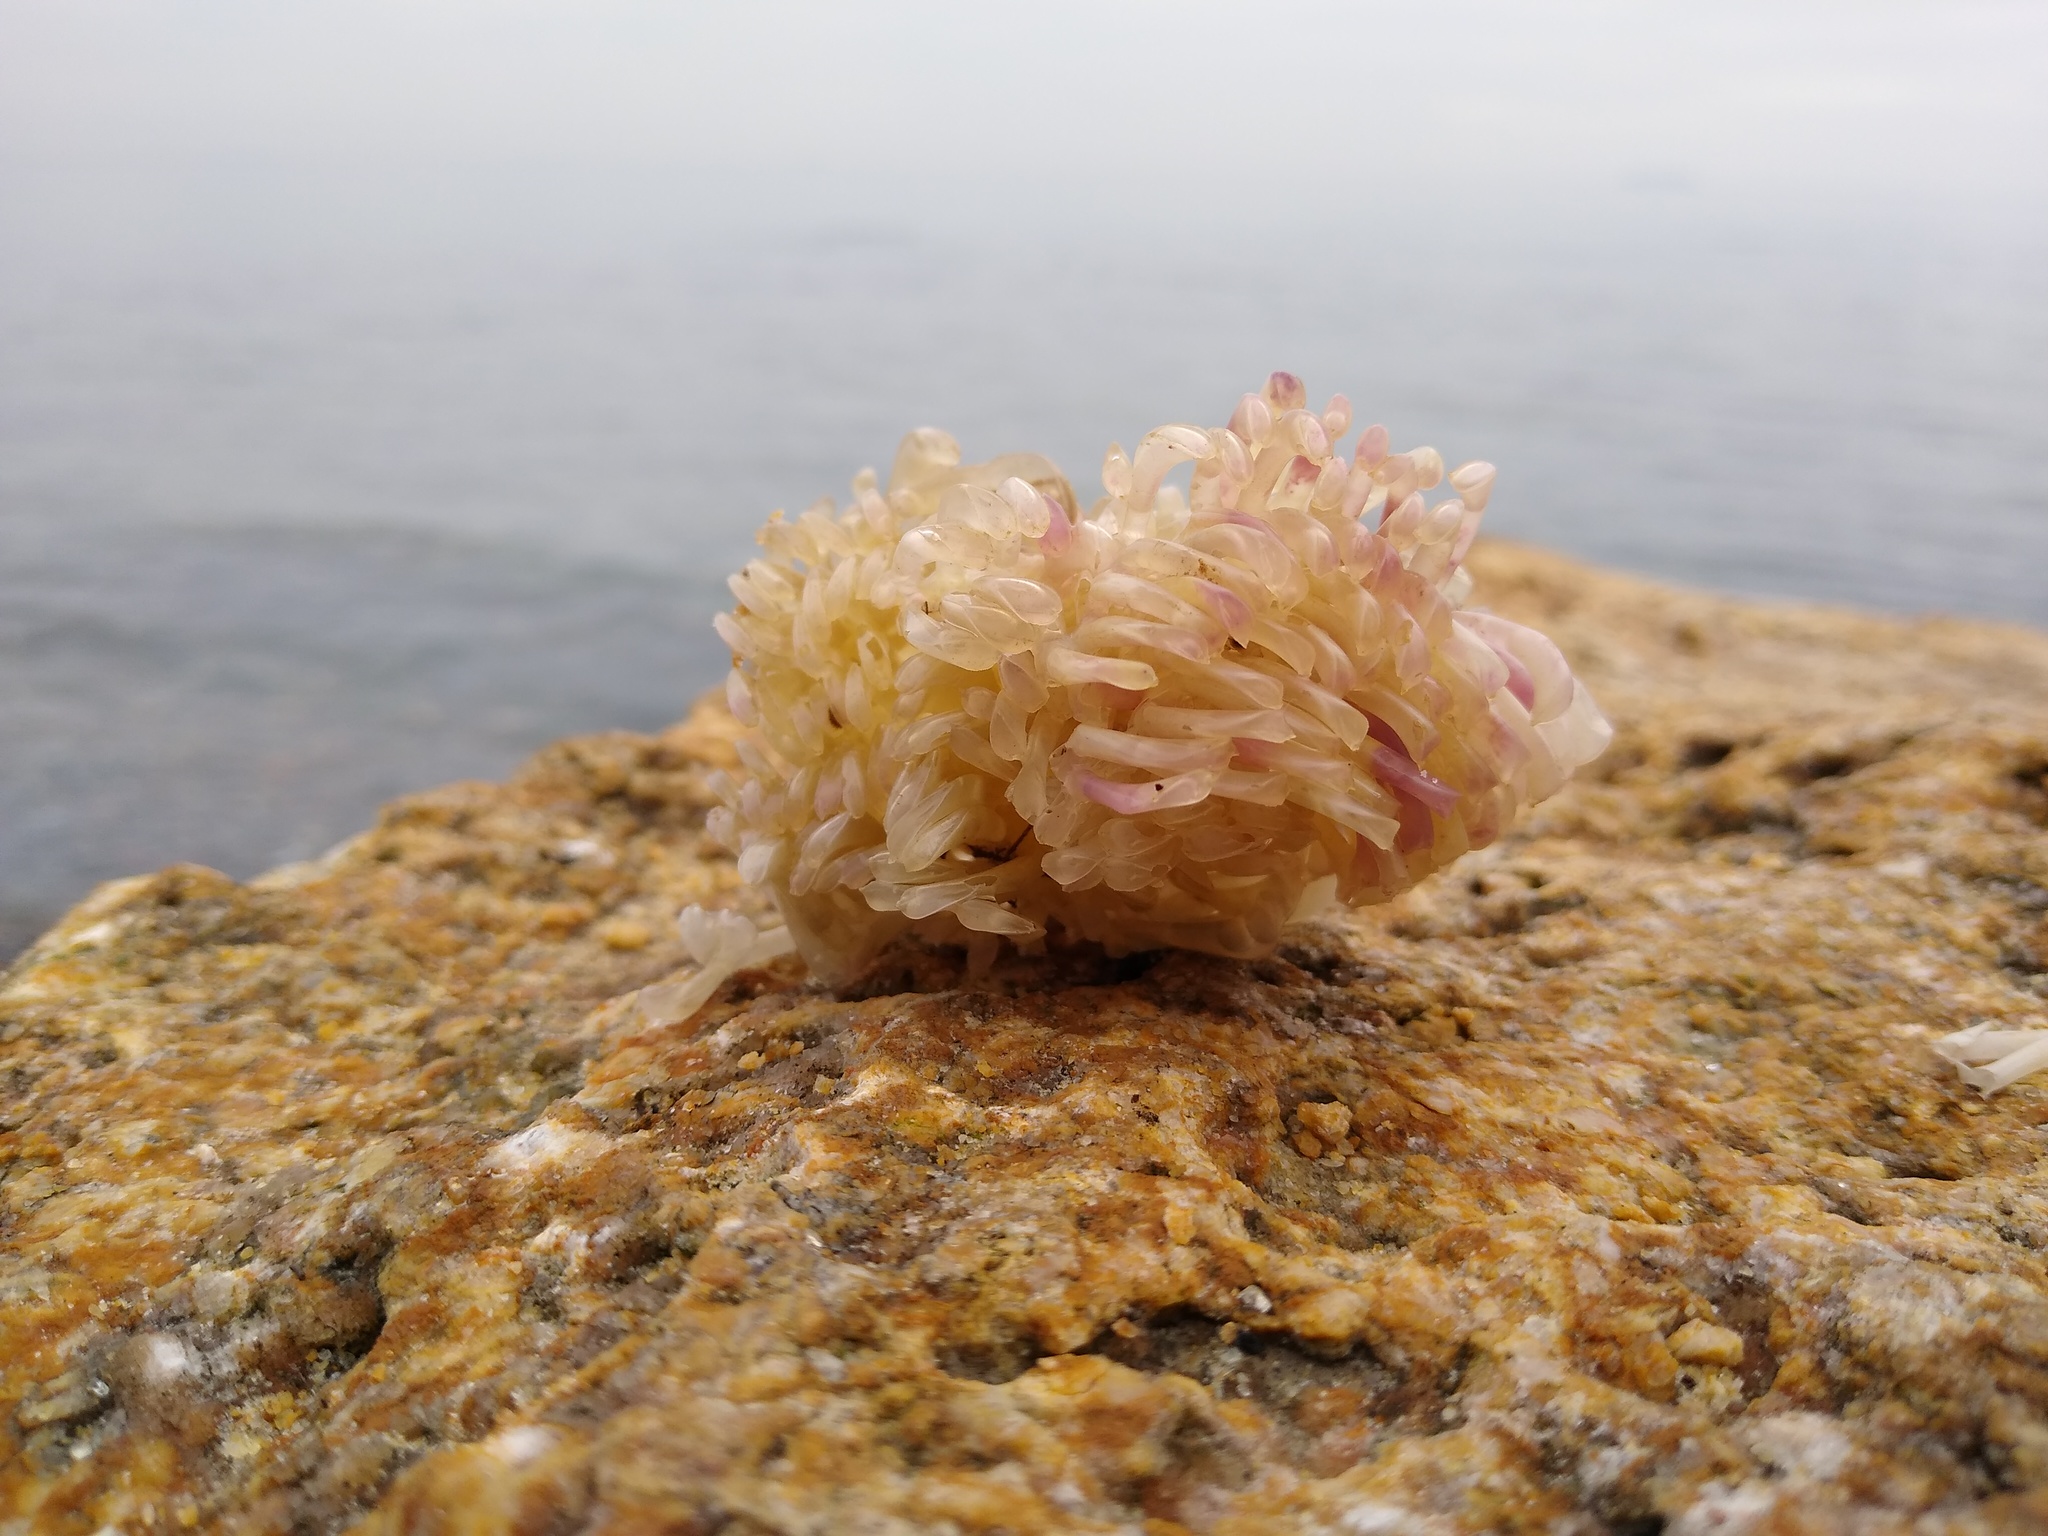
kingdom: Animalia
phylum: Mollusca
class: Gastropoda
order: Neogastropoda
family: Muricidae
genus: Rapana
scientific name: Rapana venosa
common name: Veined rapa whelk
